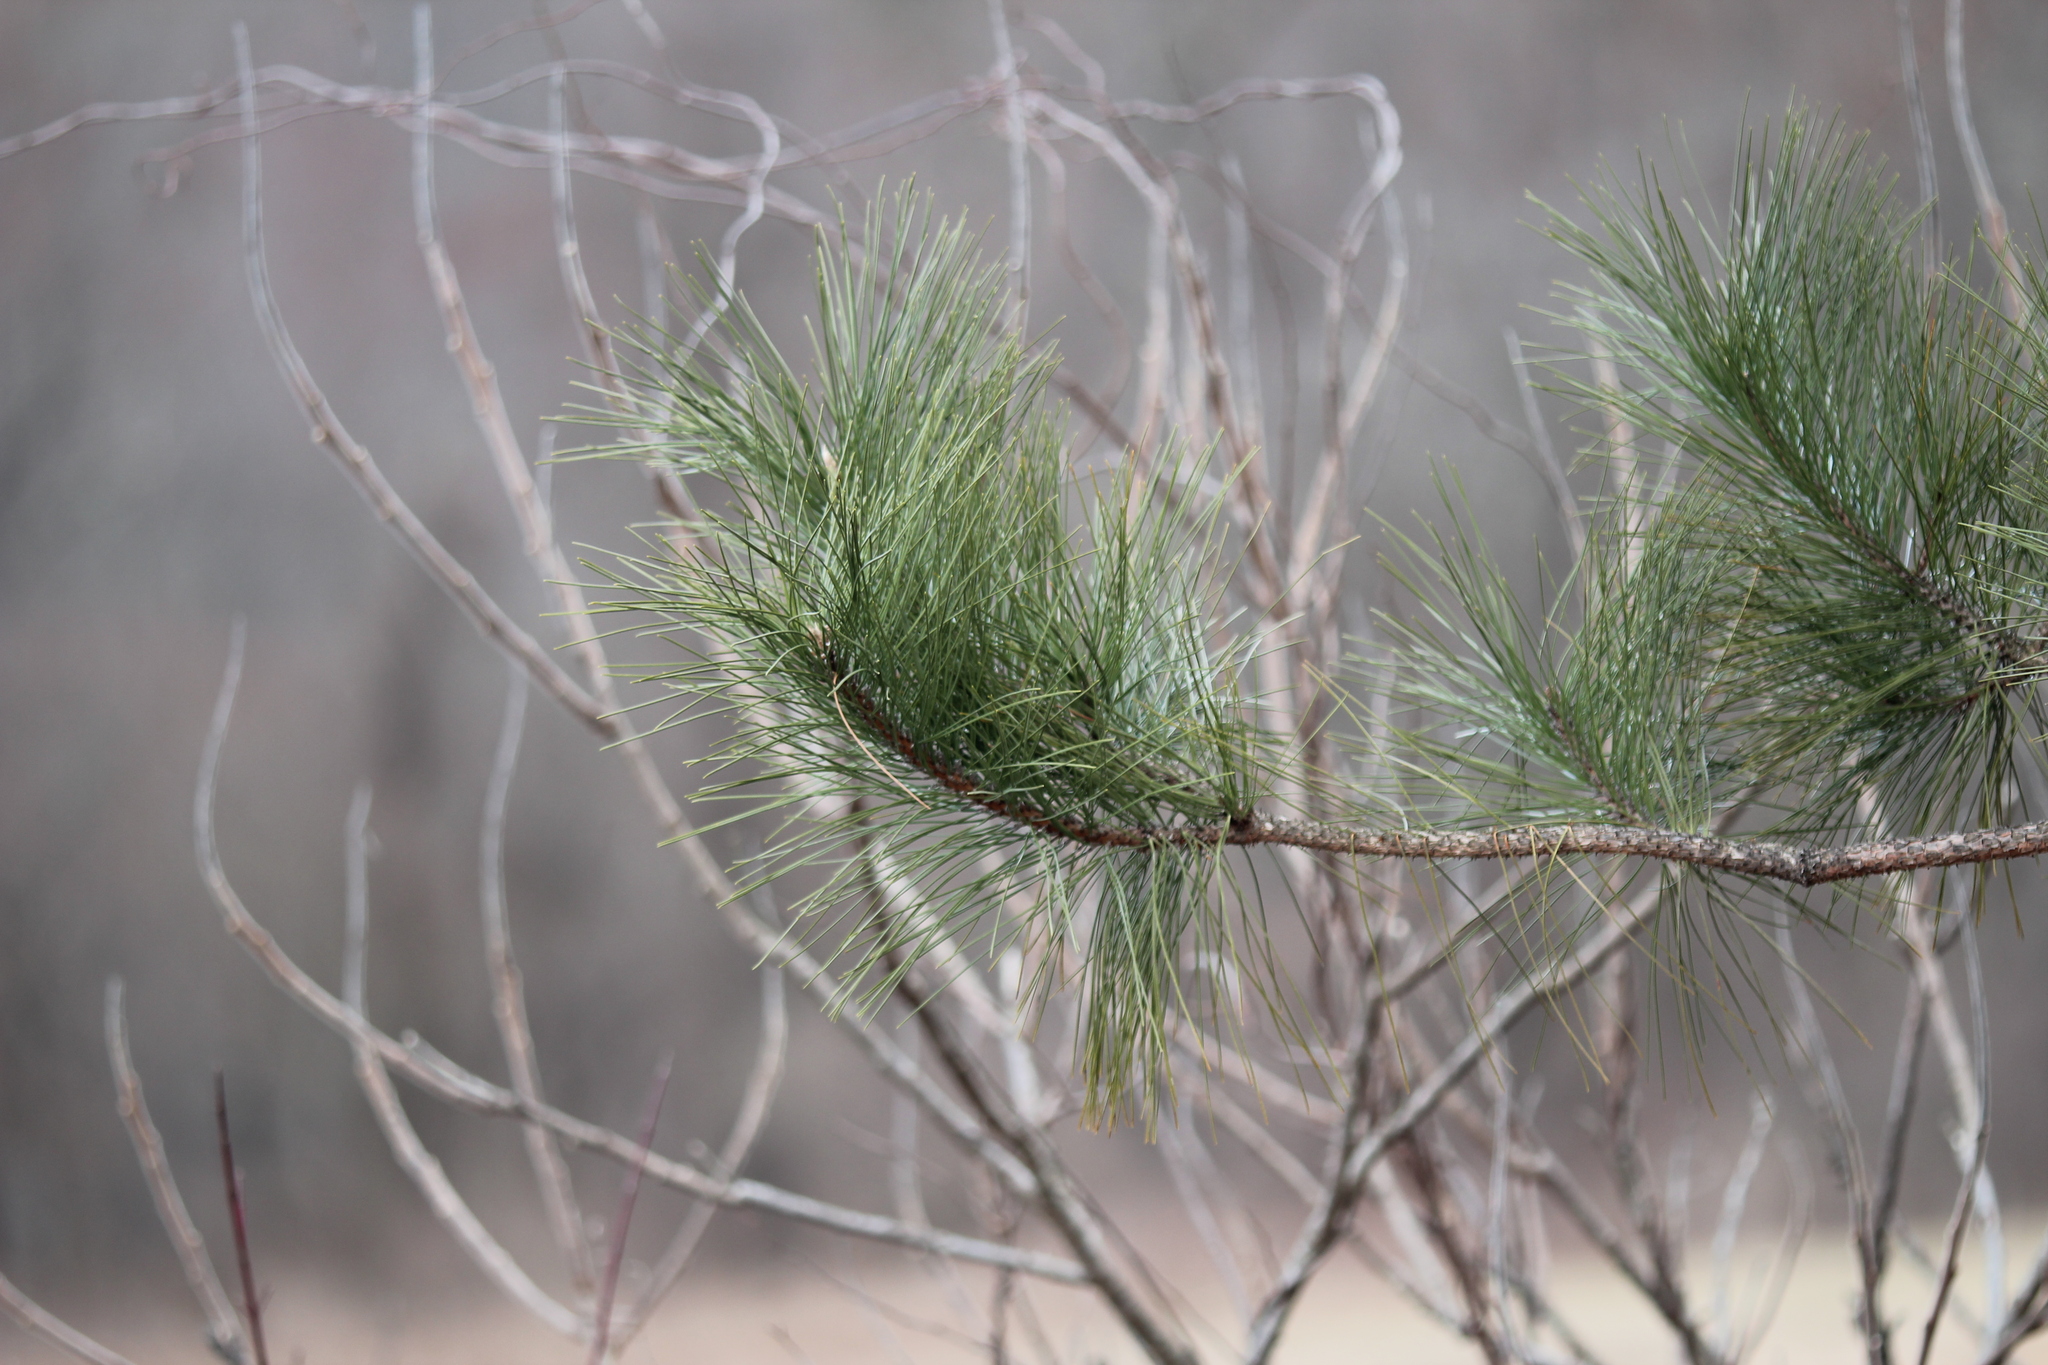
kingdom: Plantae
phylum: Tracheophyta
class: Pinopsida
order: Pinales
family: Pinaceae
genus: Pinus
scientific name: Pinus resinosa
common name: Norway pine
